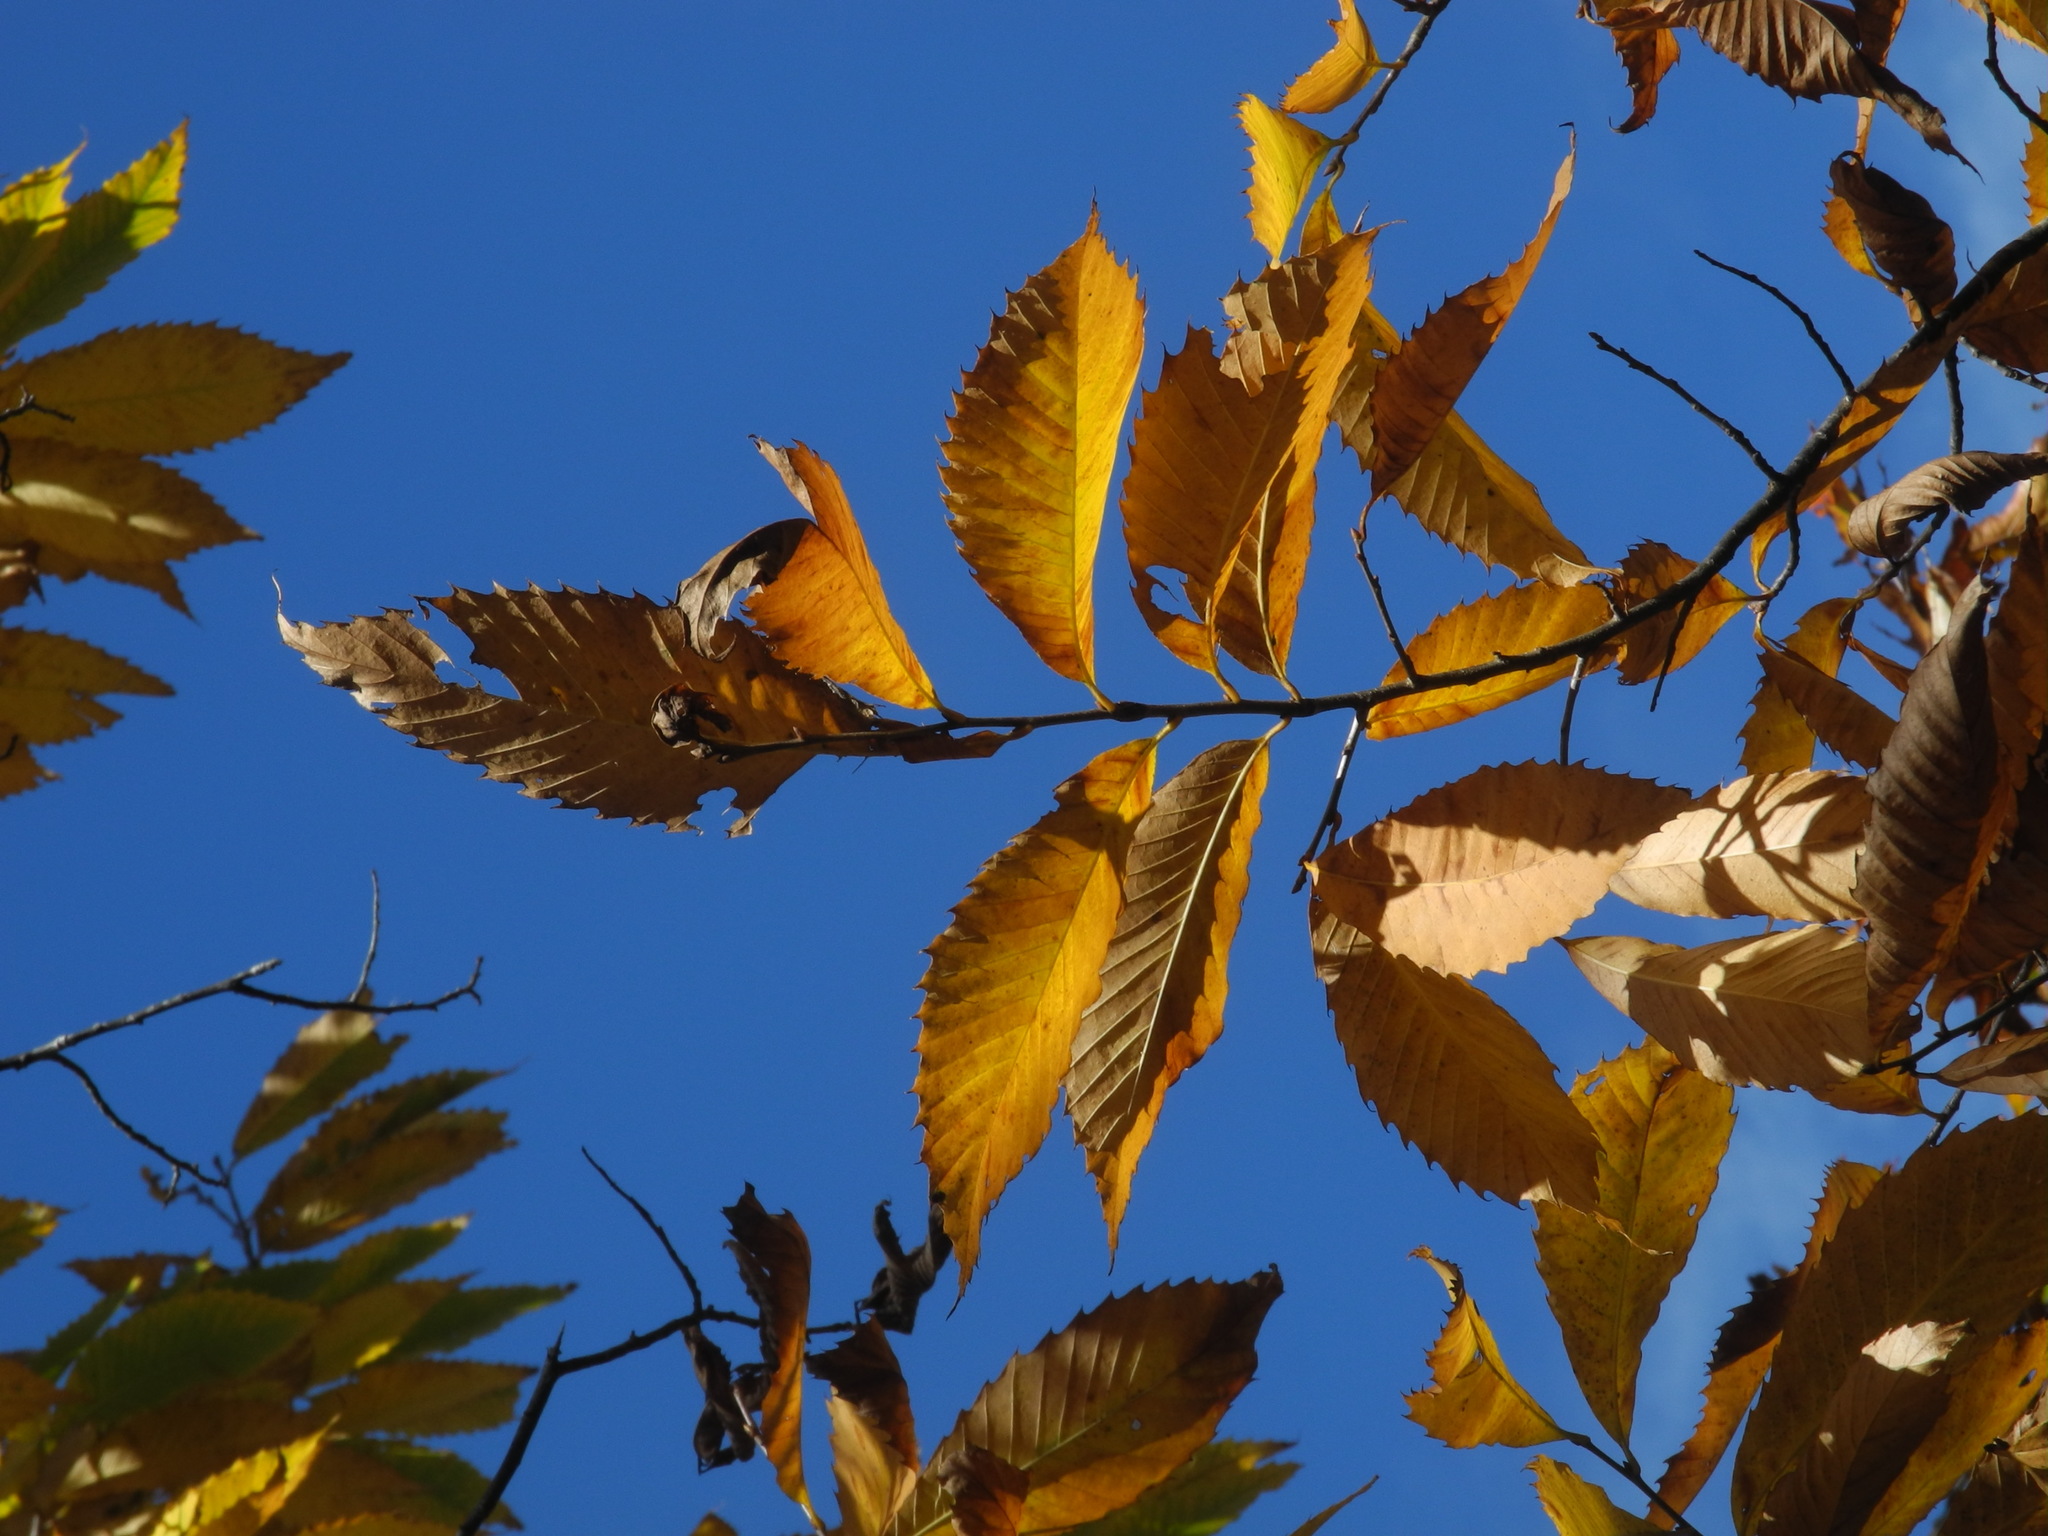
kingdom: Plantae
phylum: Tracheophyta
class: Magnoliopsida
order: Fagales
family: Fagaceae
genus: Castanea
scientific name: Castanea dentata
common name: American chestnut
